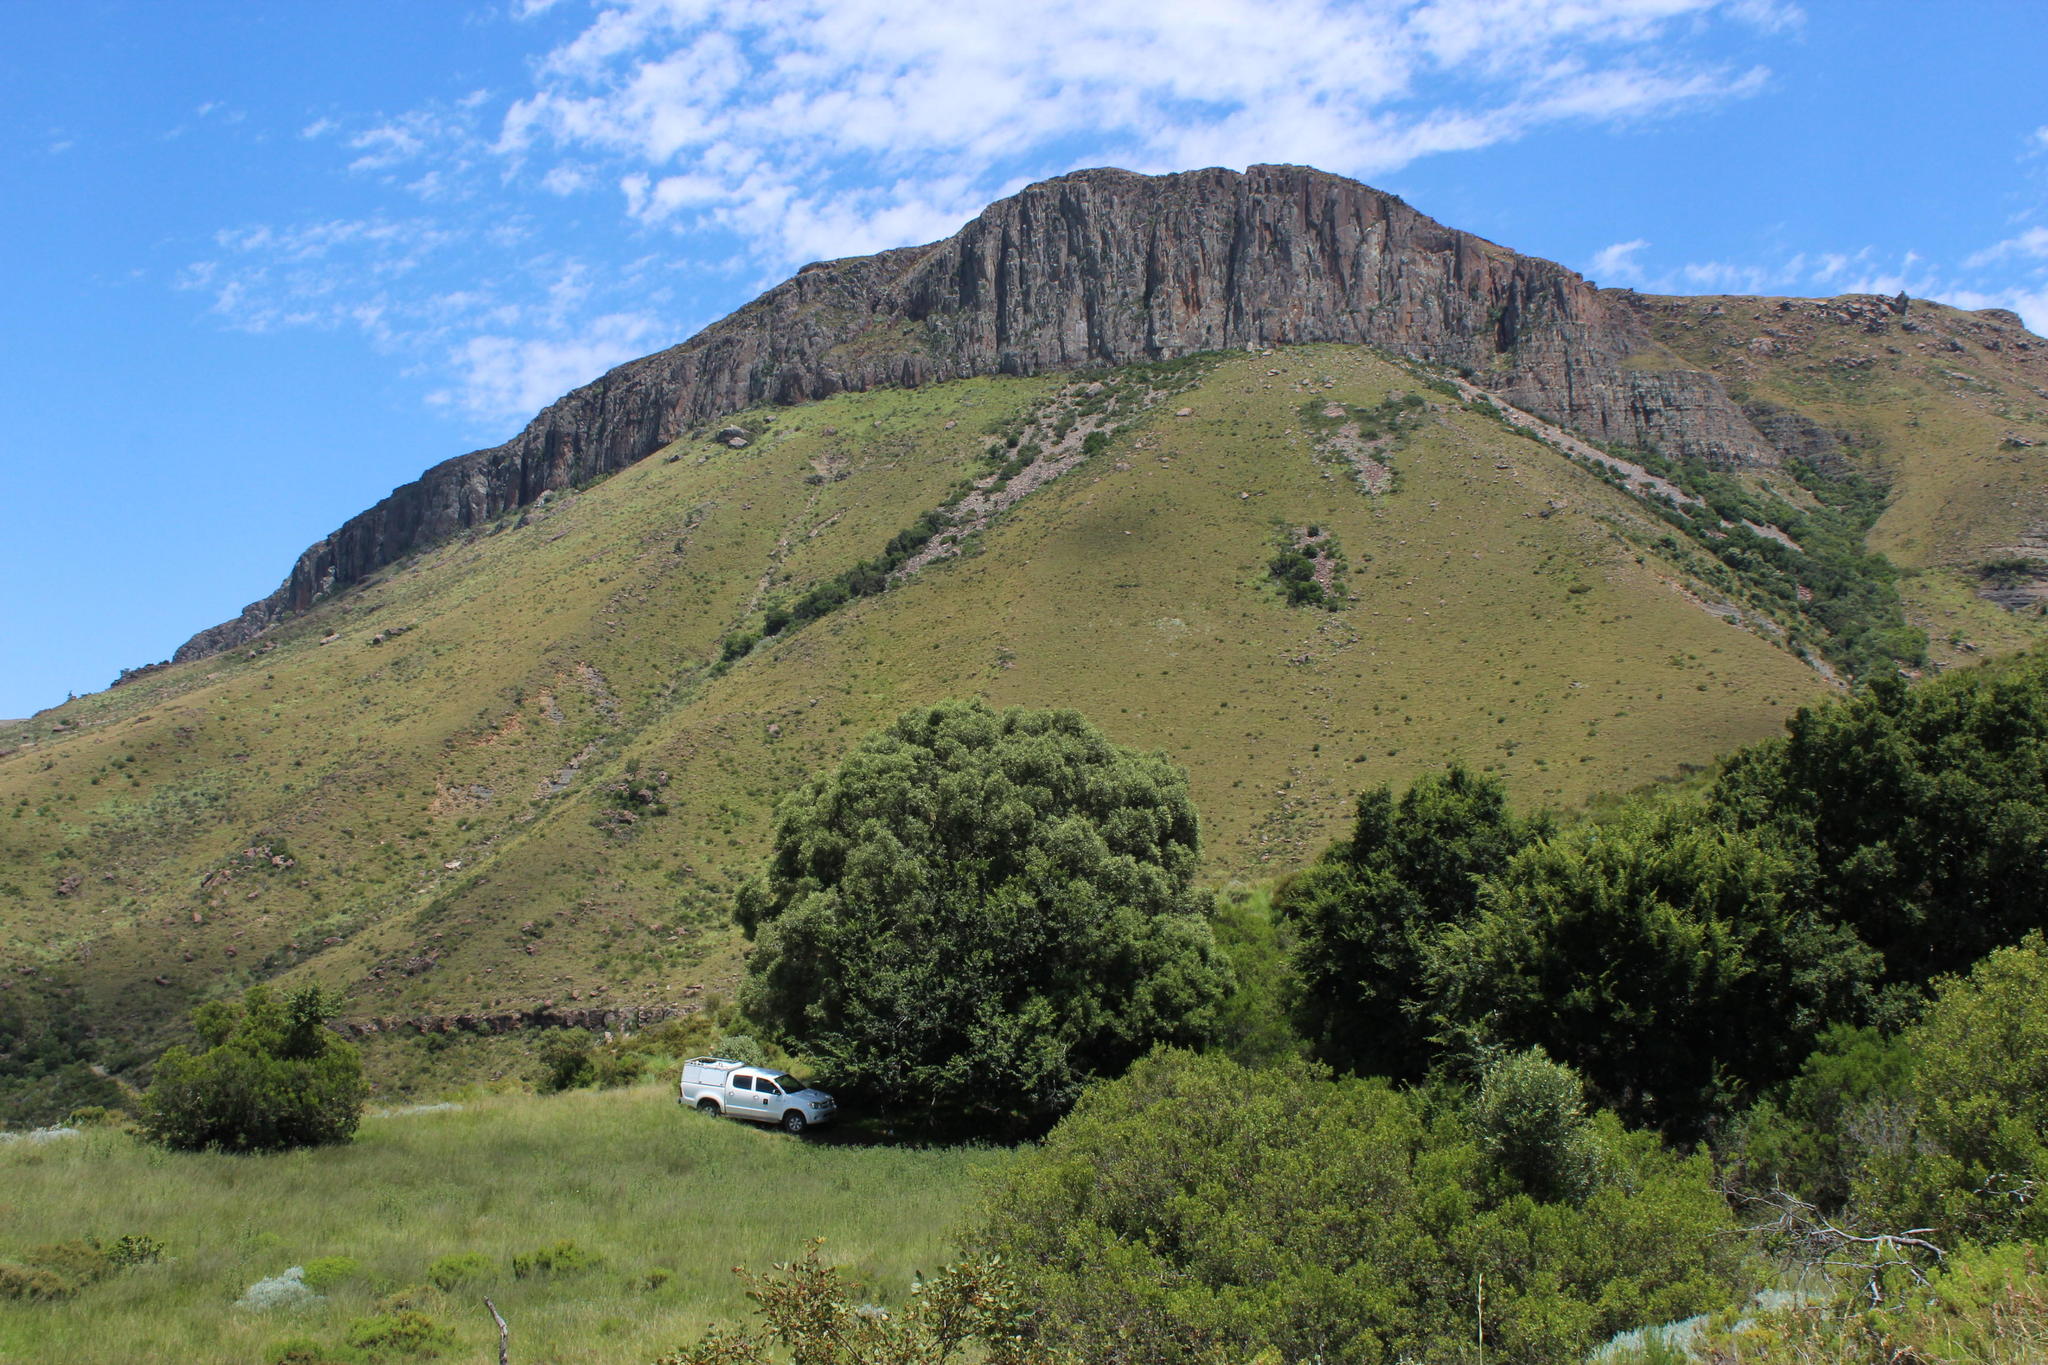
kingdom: Plantae
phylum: Tracheophyta
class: Magnoliopsida
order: Lamiales
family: Oleaceae
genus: Olea
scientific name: Olea europaea
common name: Olive
